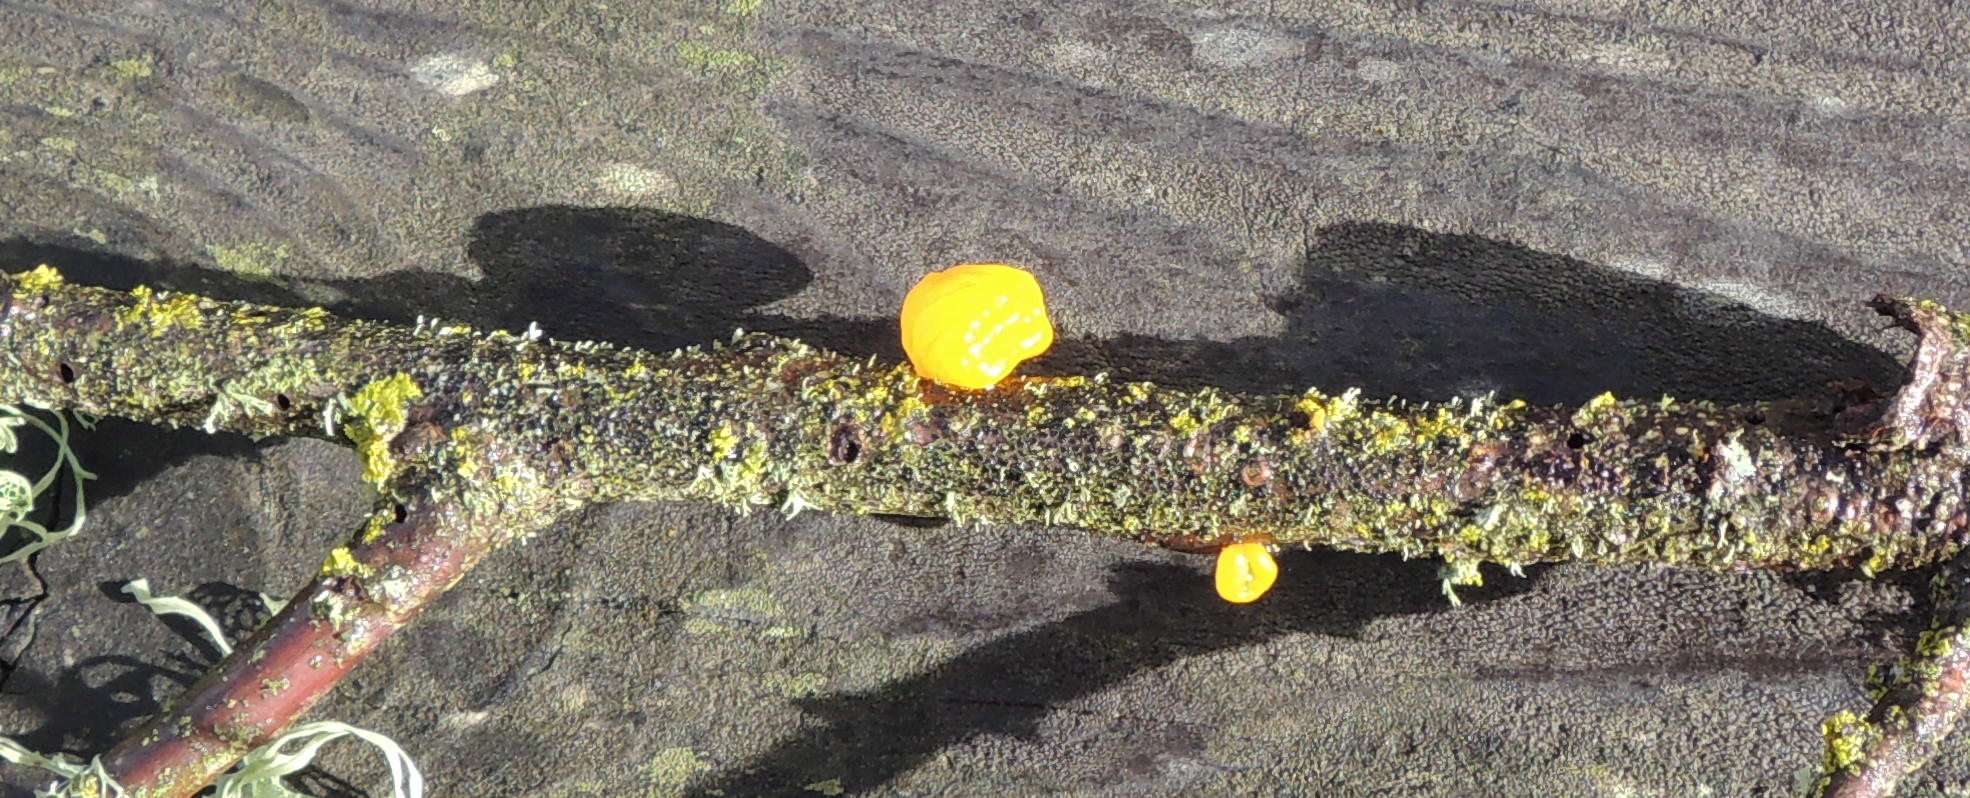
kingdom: Fungi
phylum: Basidiomycota
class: Tremellomycetes
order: Tremellales
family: Tremellaceae
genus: Tremella
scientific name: Tremella mesenterica
